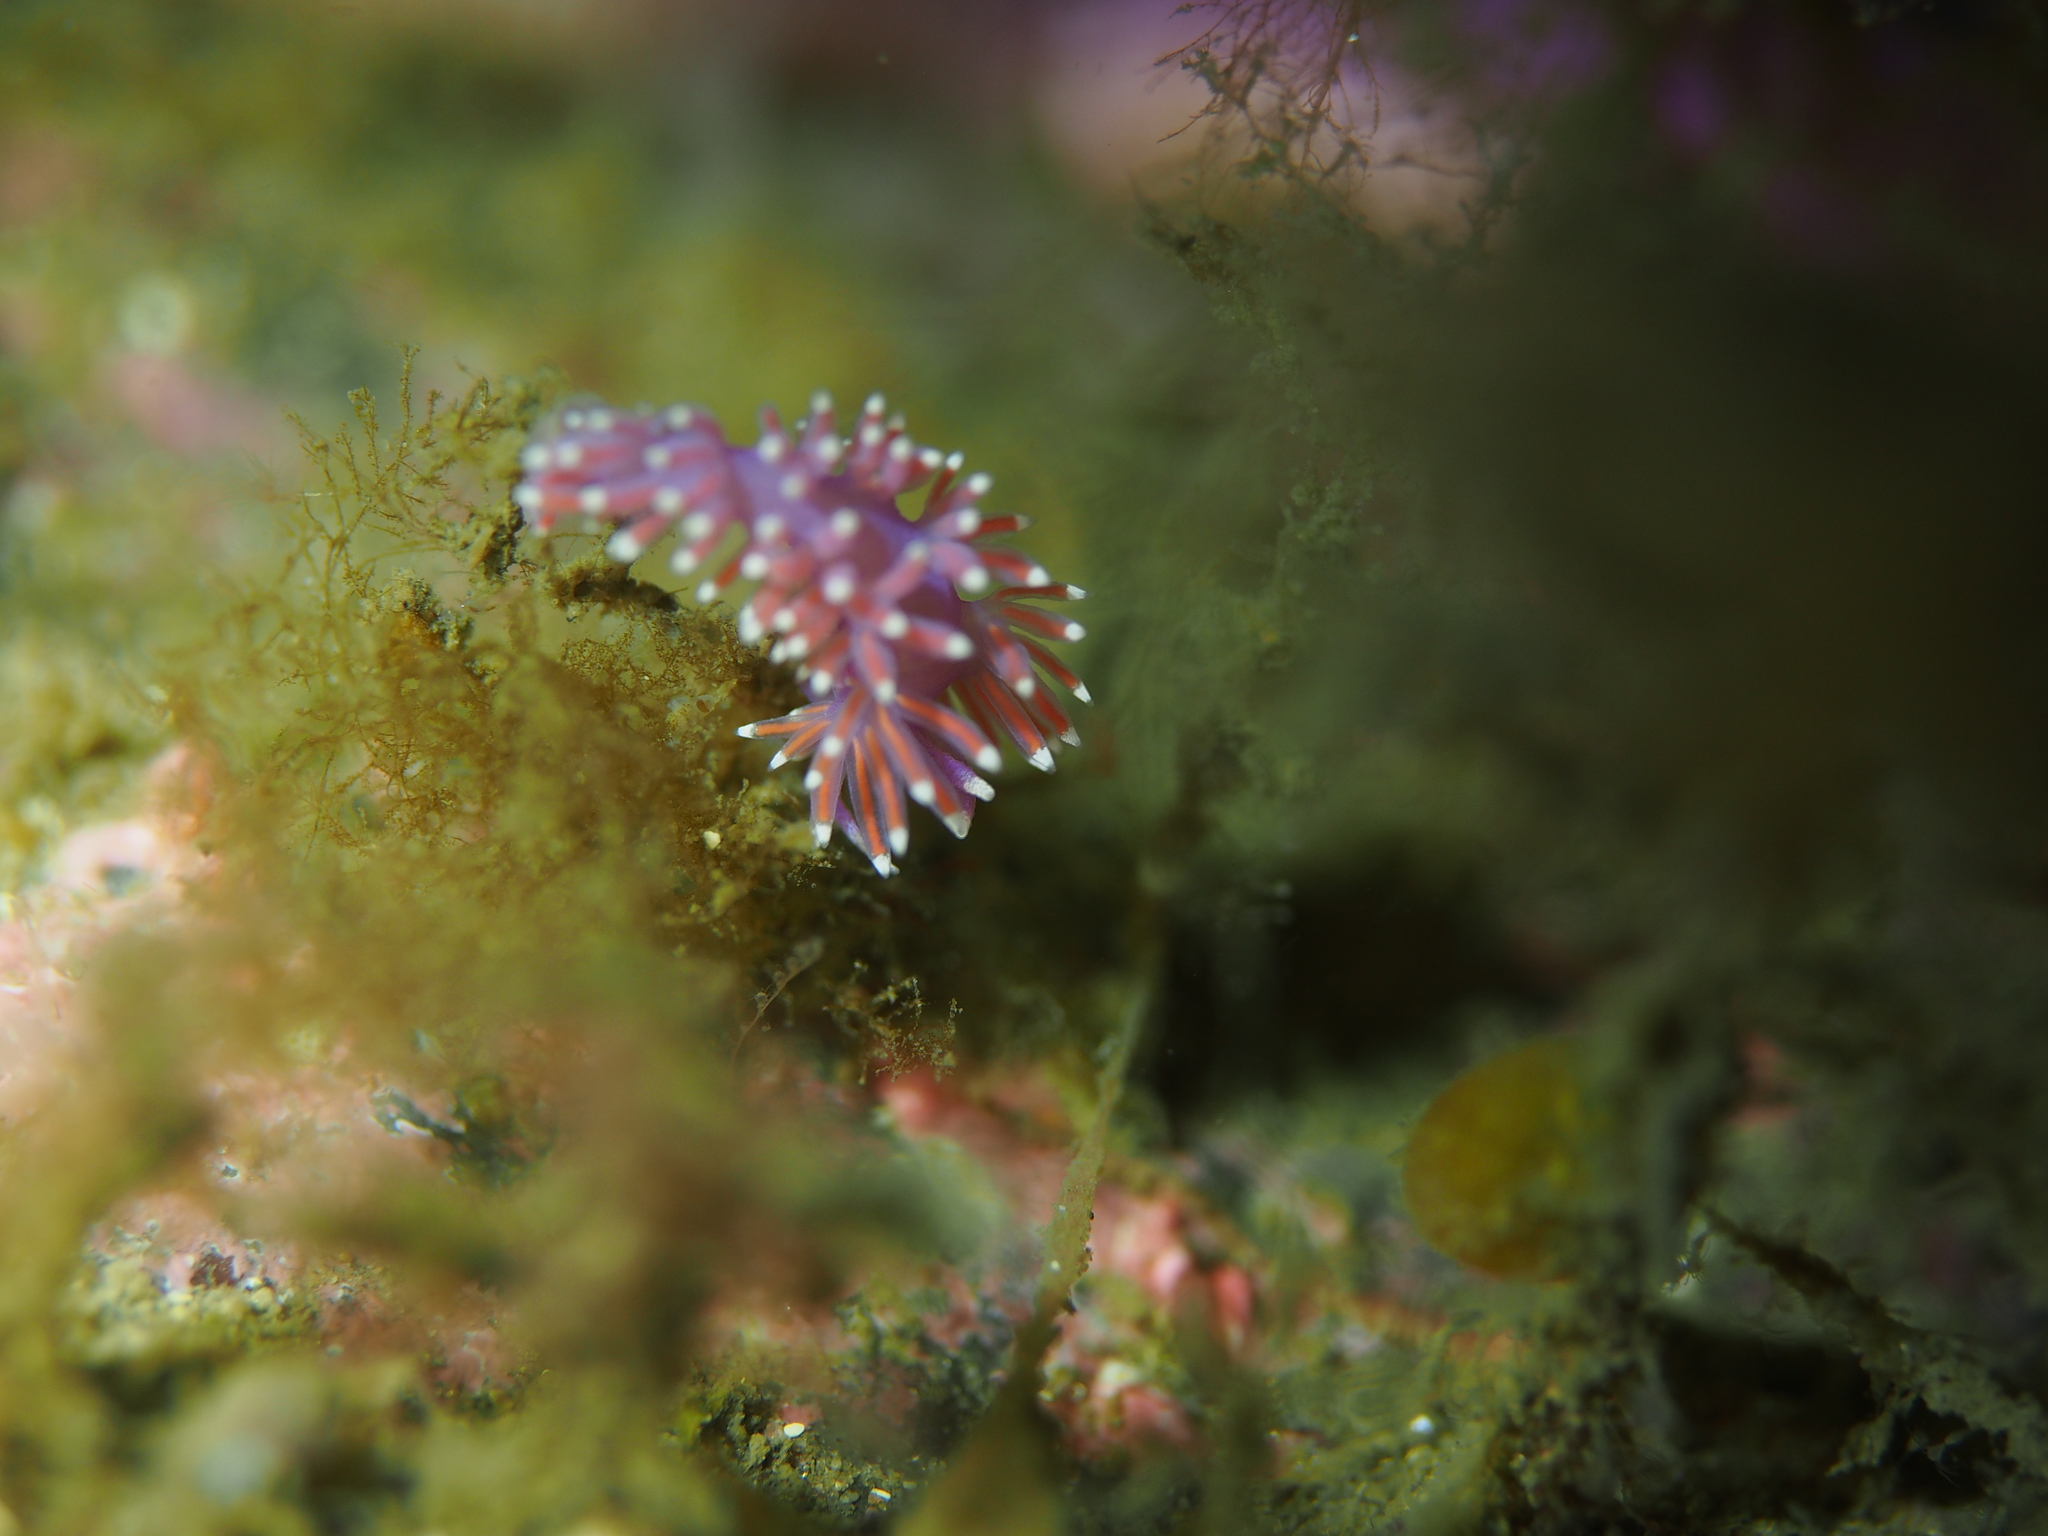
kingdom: Animalia
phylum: Mollusca
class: Gastropoda
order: Nudibranchia
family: Flabellinidae
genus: Edmundsella
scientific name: Edmundsella pedata
